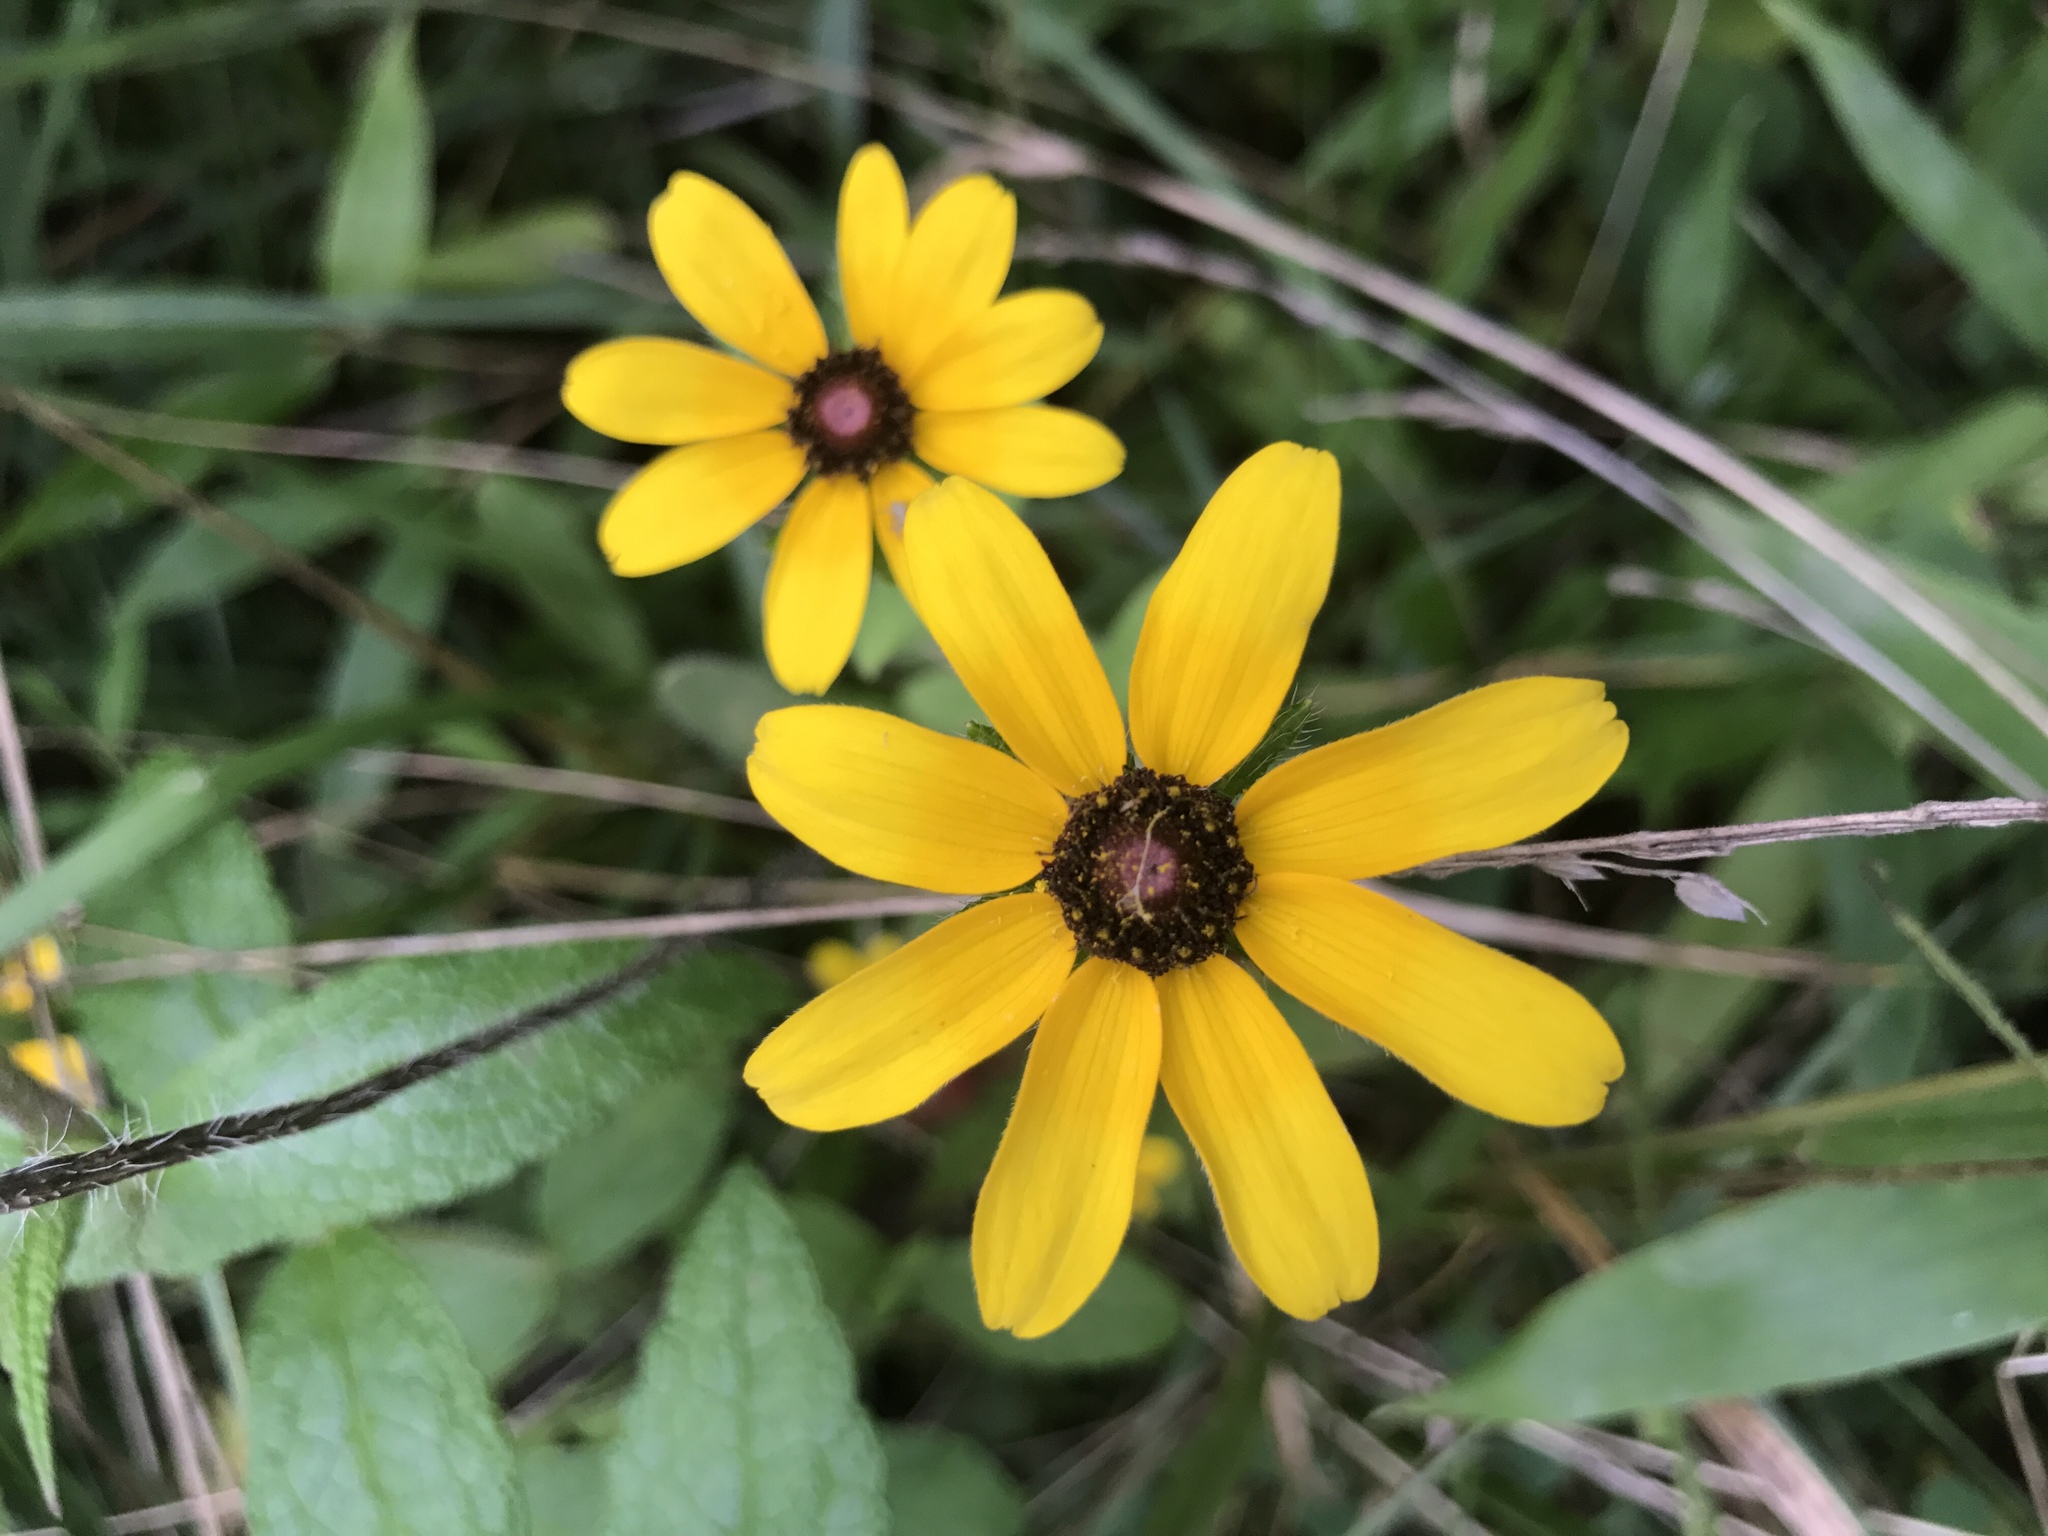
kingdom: Plantae
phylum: Tracheophyta
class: Magnoliopsida
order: Asterales
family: Asteraceae
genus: Rudbeckia
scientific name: Rudbeckia hirta
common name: Black-eyed-susan
